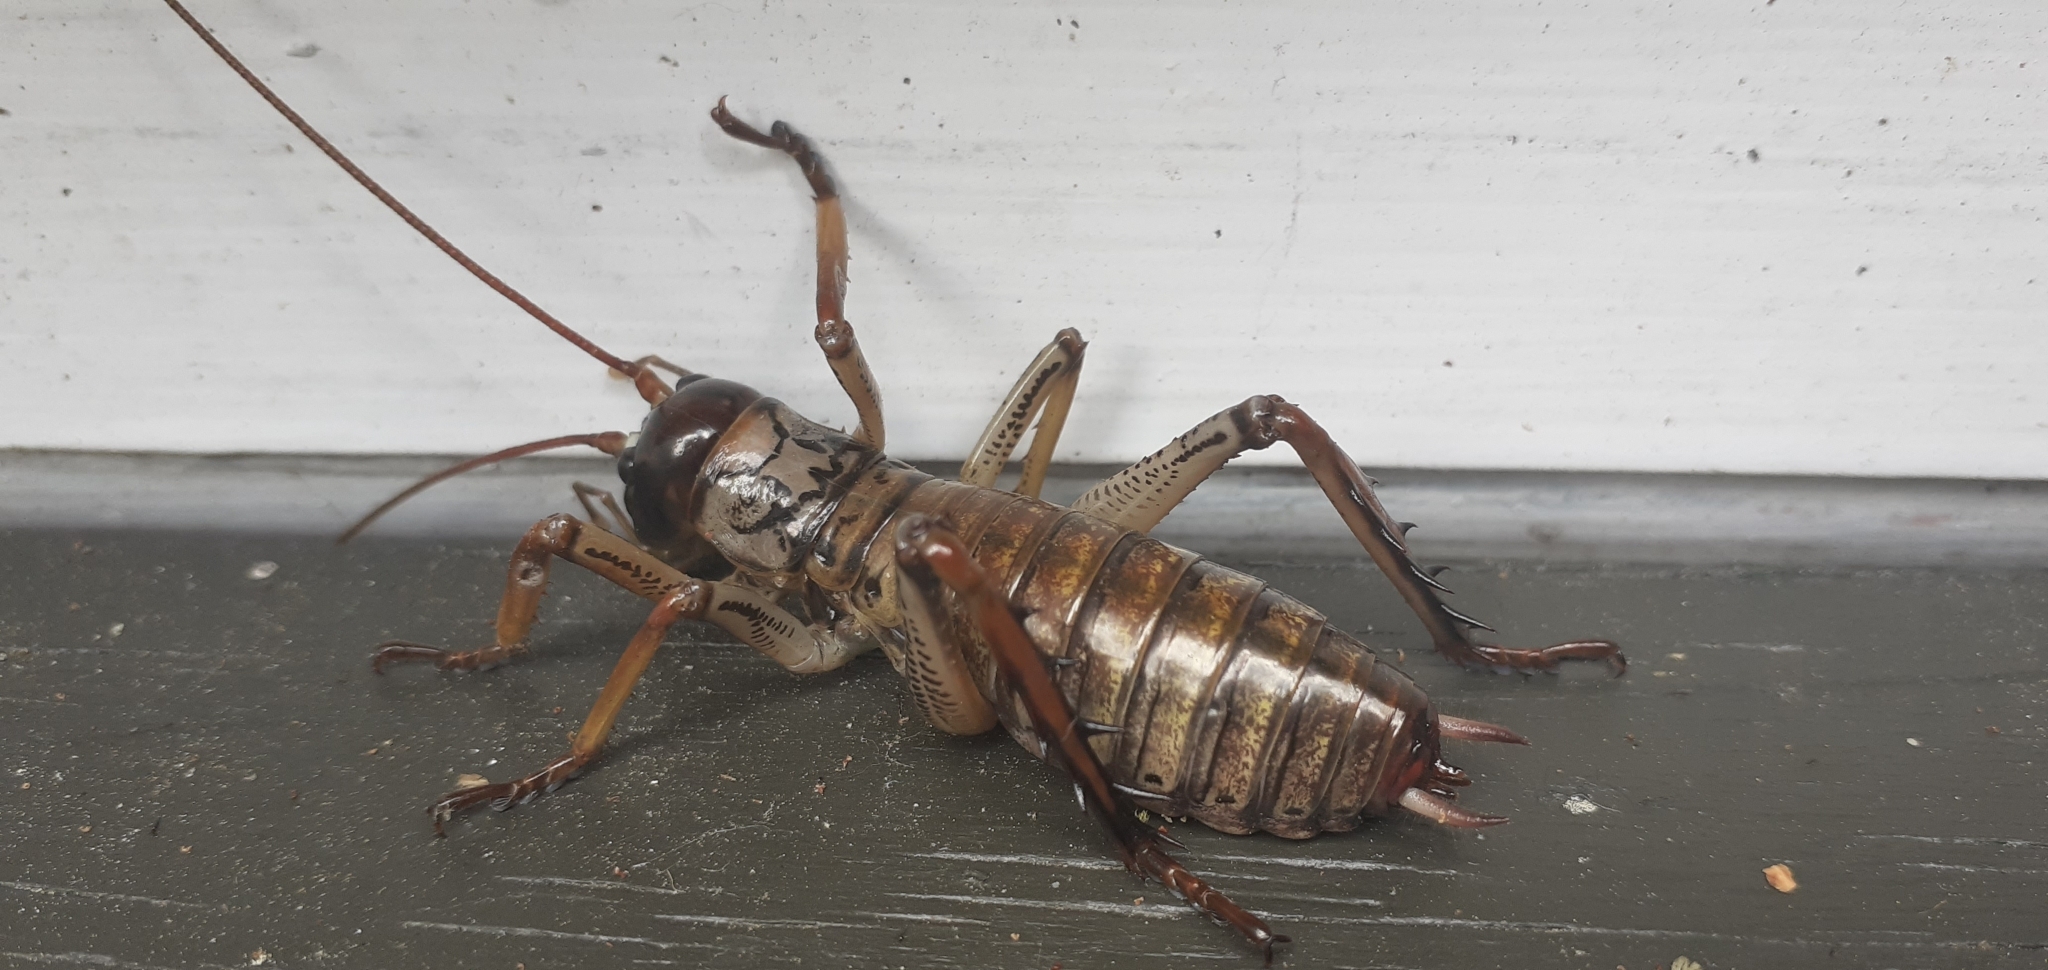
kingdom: Animalia
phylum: Arthropoda
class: Insecta
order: Orthoptera
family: Anostostomatidae
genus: Hemideina
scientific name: Hemideina thoracica
